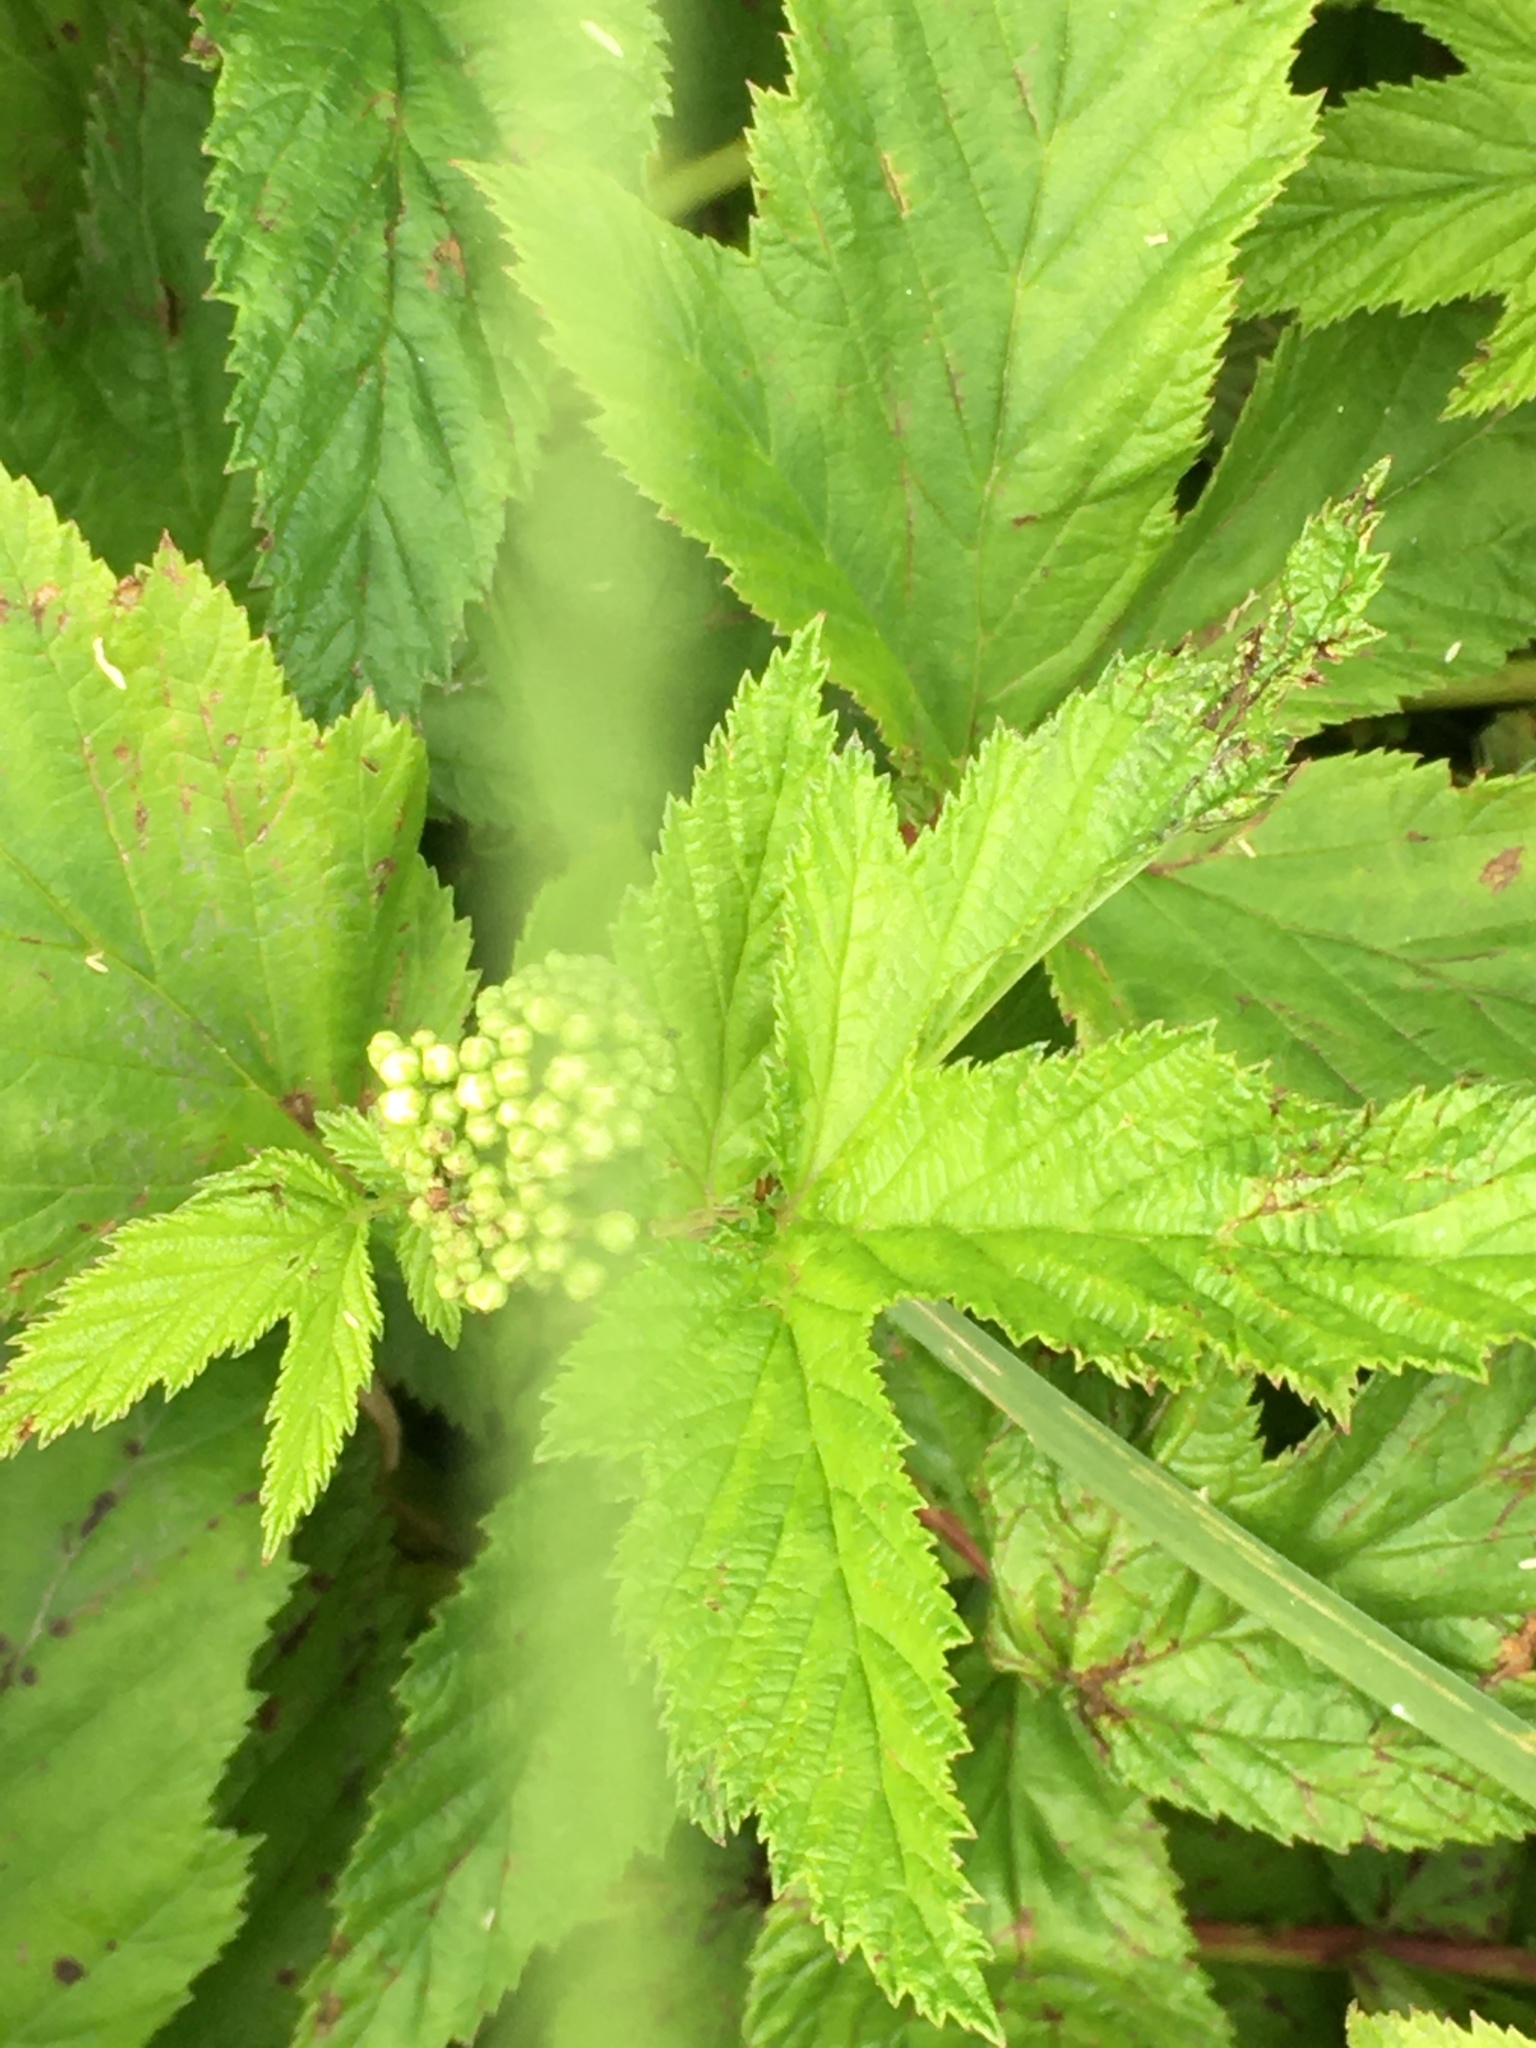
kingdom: Plantae
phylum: Tracheophyta
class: Magnoliopsida
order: Rosales
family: Rosaceae
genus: Filipendula
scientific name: Filipendula ulmaria
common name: Meadowsweet
